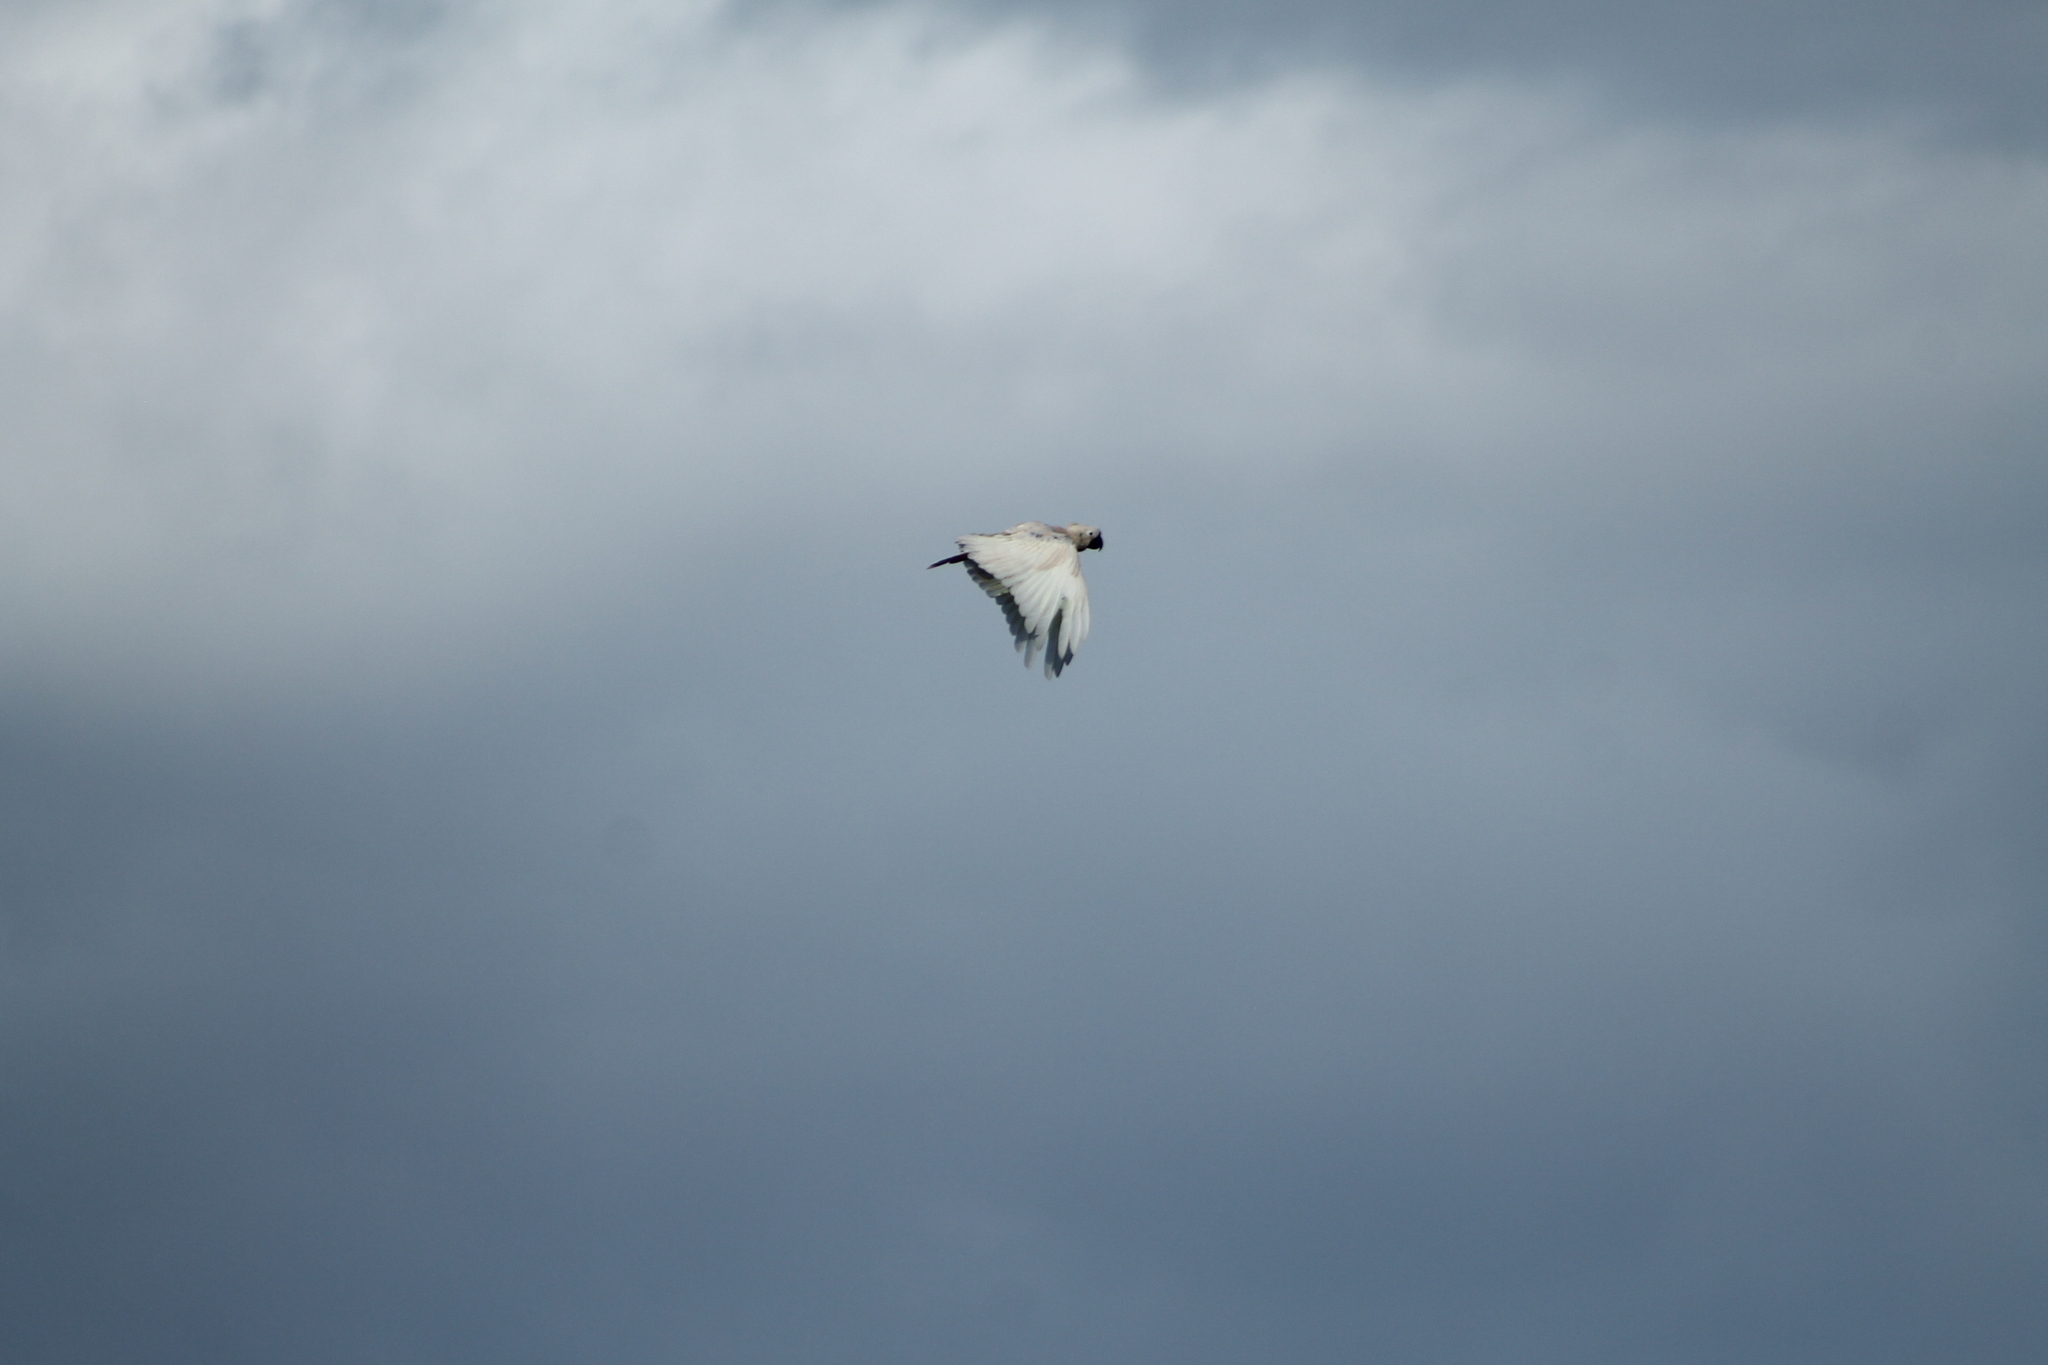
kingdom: Animalia
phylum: Chordata
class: Aves
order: Psittaciformes
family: Psittacidae
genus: Cacatua
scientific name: Cacatua galerita
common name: Sulphur-crested cockatoo
